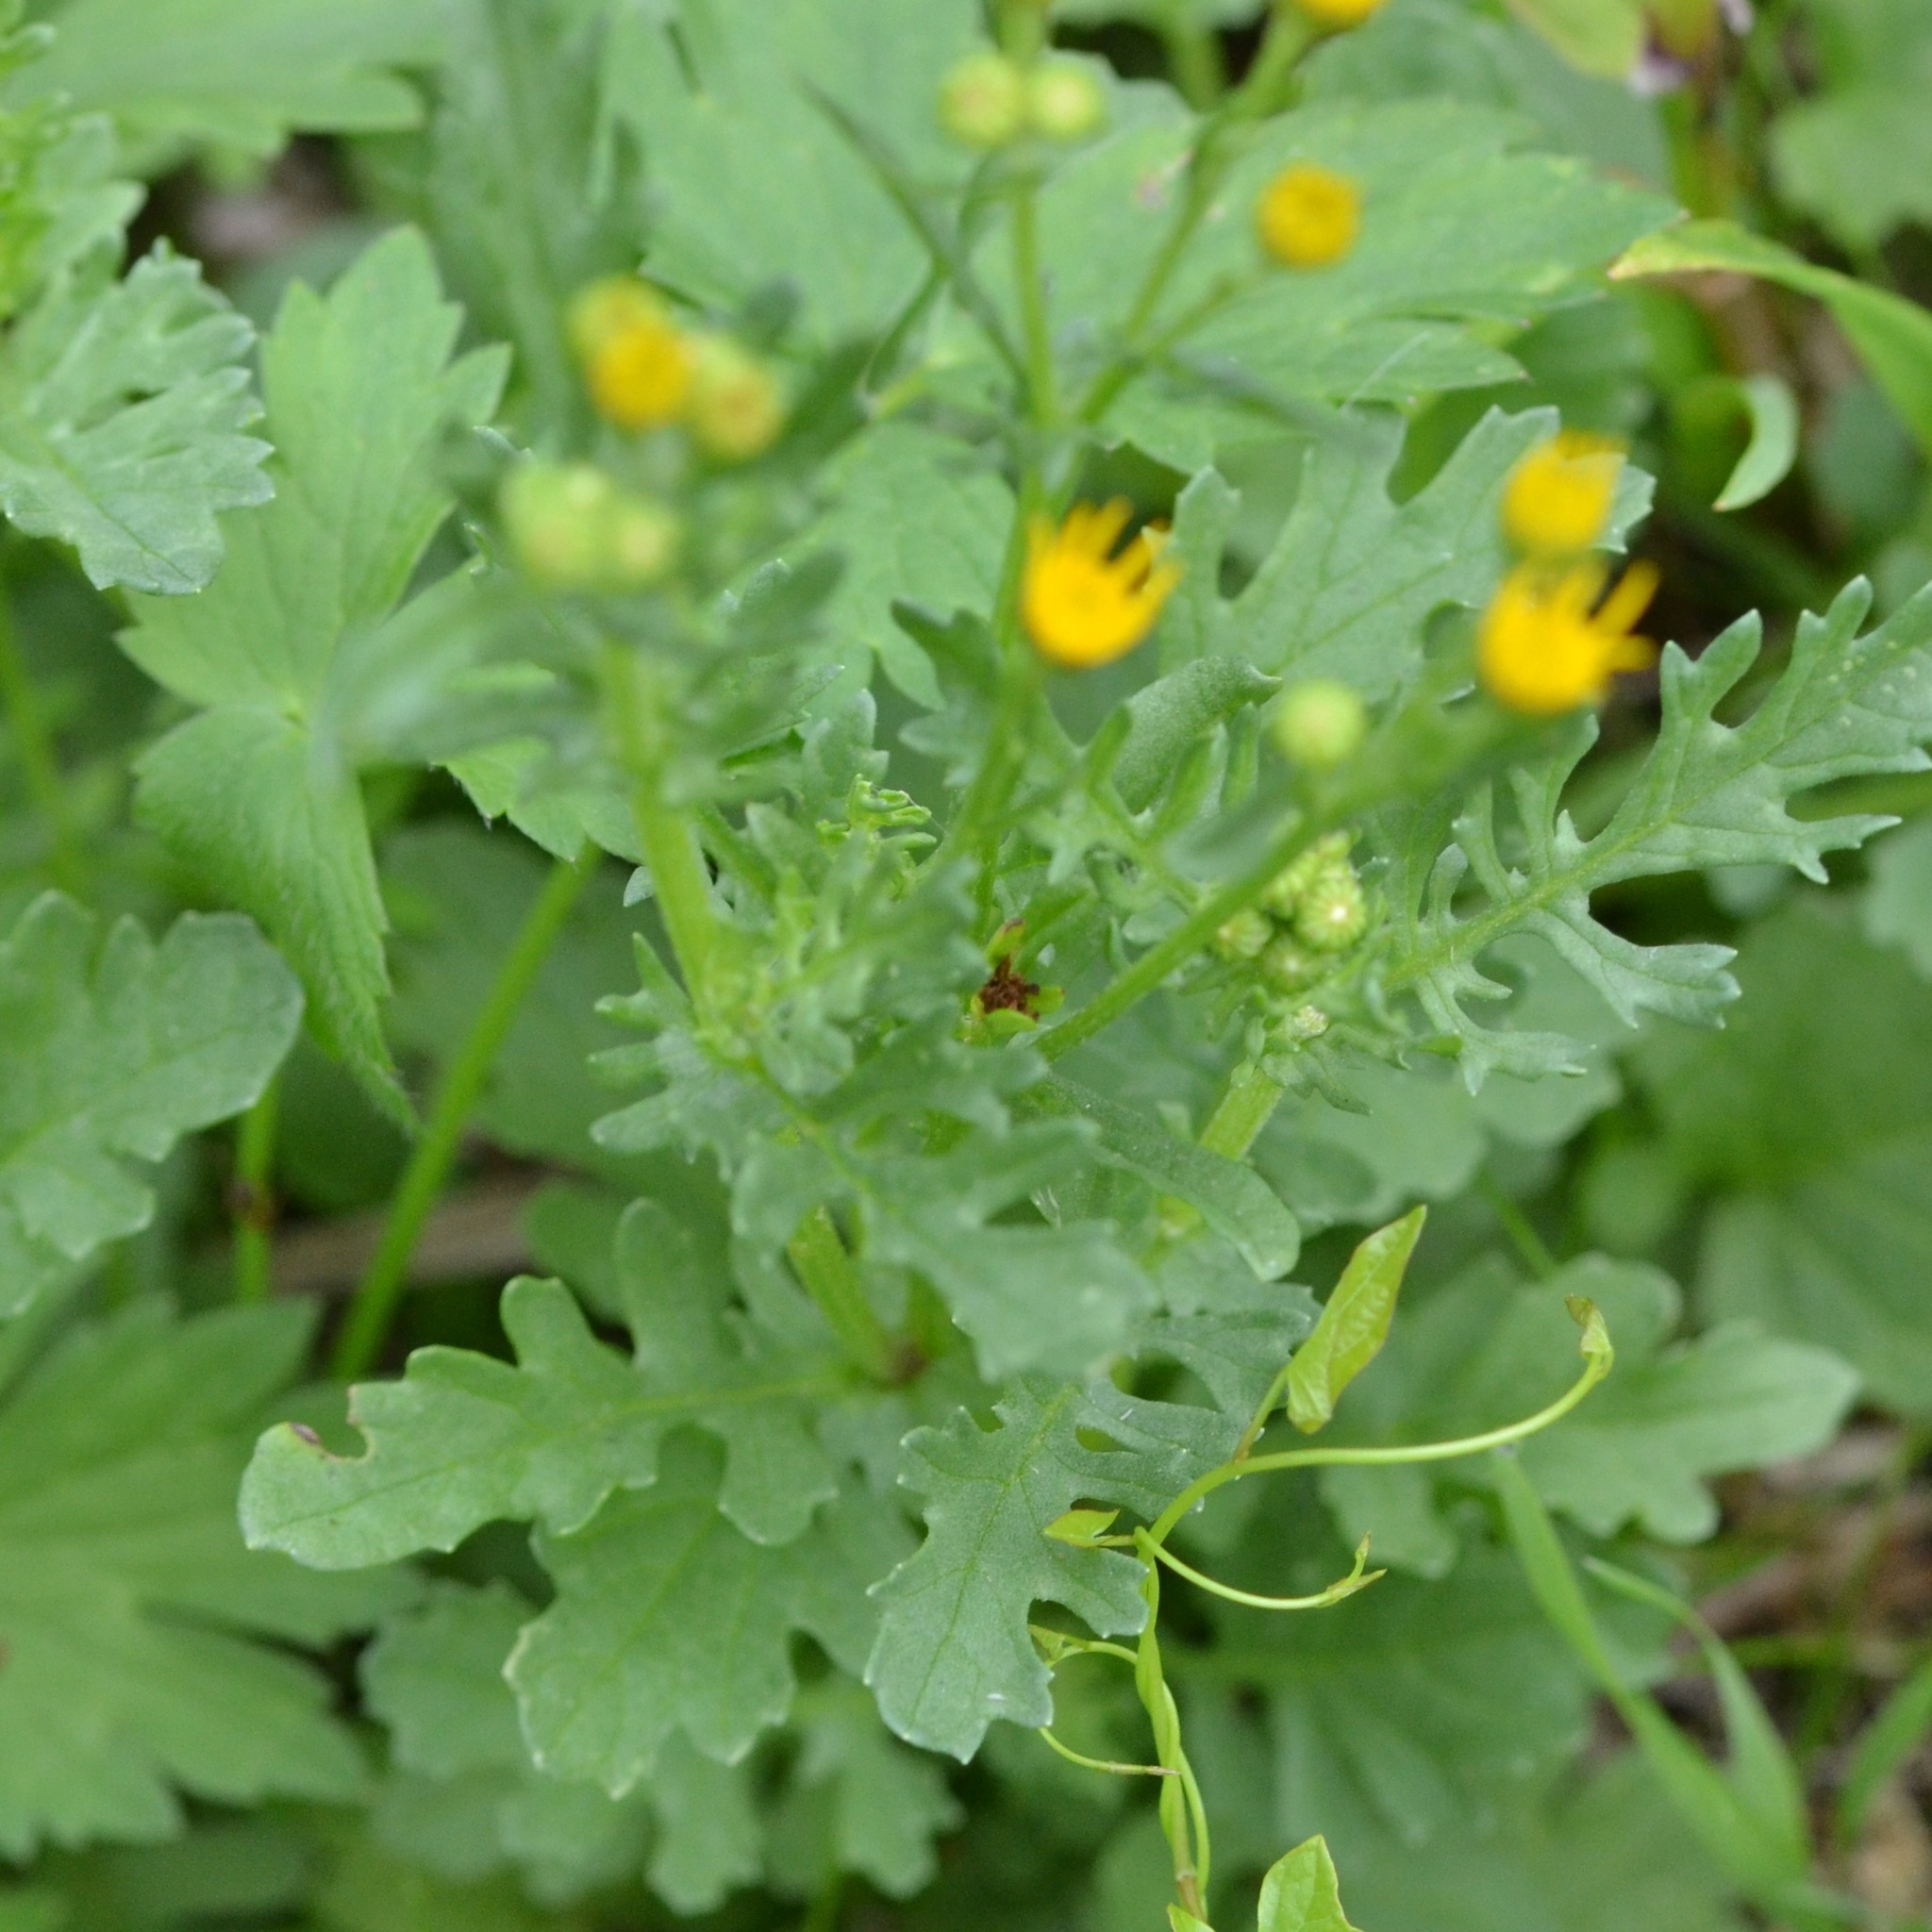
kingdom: Plantae
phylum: Tracheophyta
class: Magnoliopsida
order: Asterales
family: Asteraceae
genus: Jacobaea
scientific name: Jacobaea vulgaris
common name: Stinking willie
